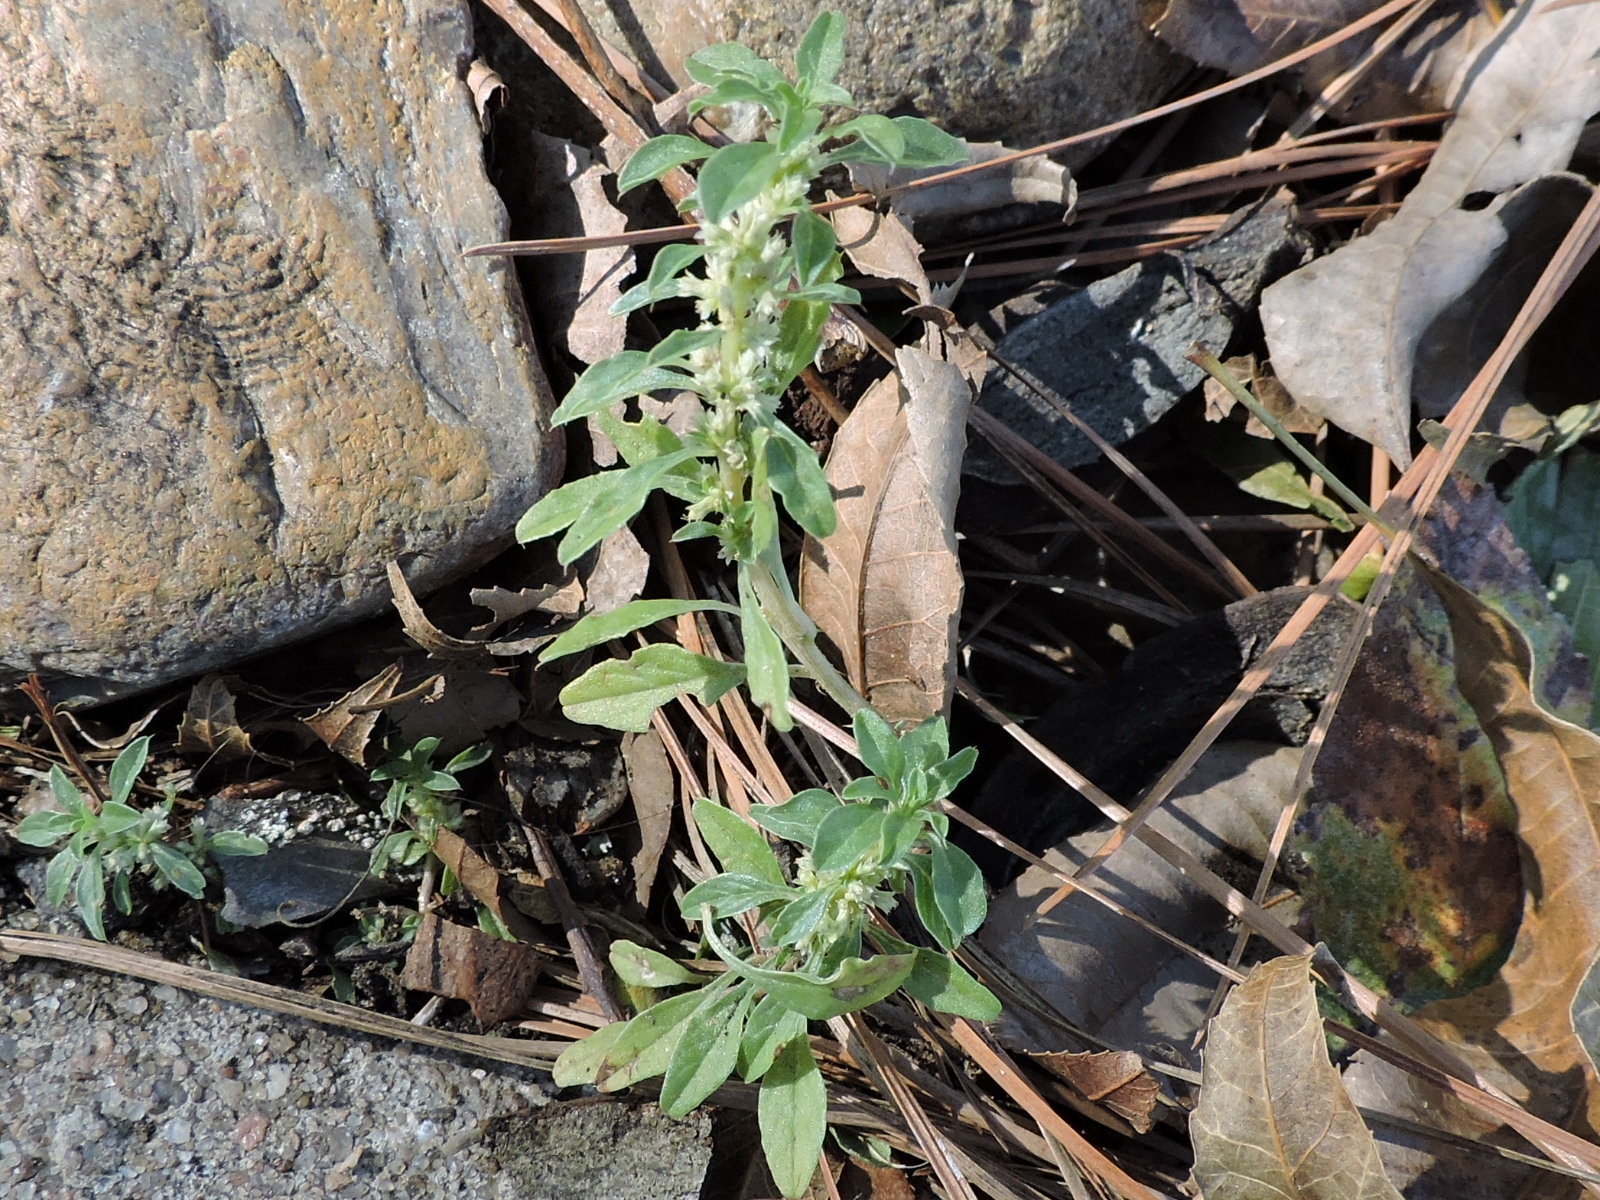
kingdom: Plantae
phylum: Tracheophyta
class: Magnoliopsida
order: Caryophyllales
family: Amaranthaceae
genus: Amaranthus
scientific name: Amaranthus blitoides
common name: Prostrate pigweed
